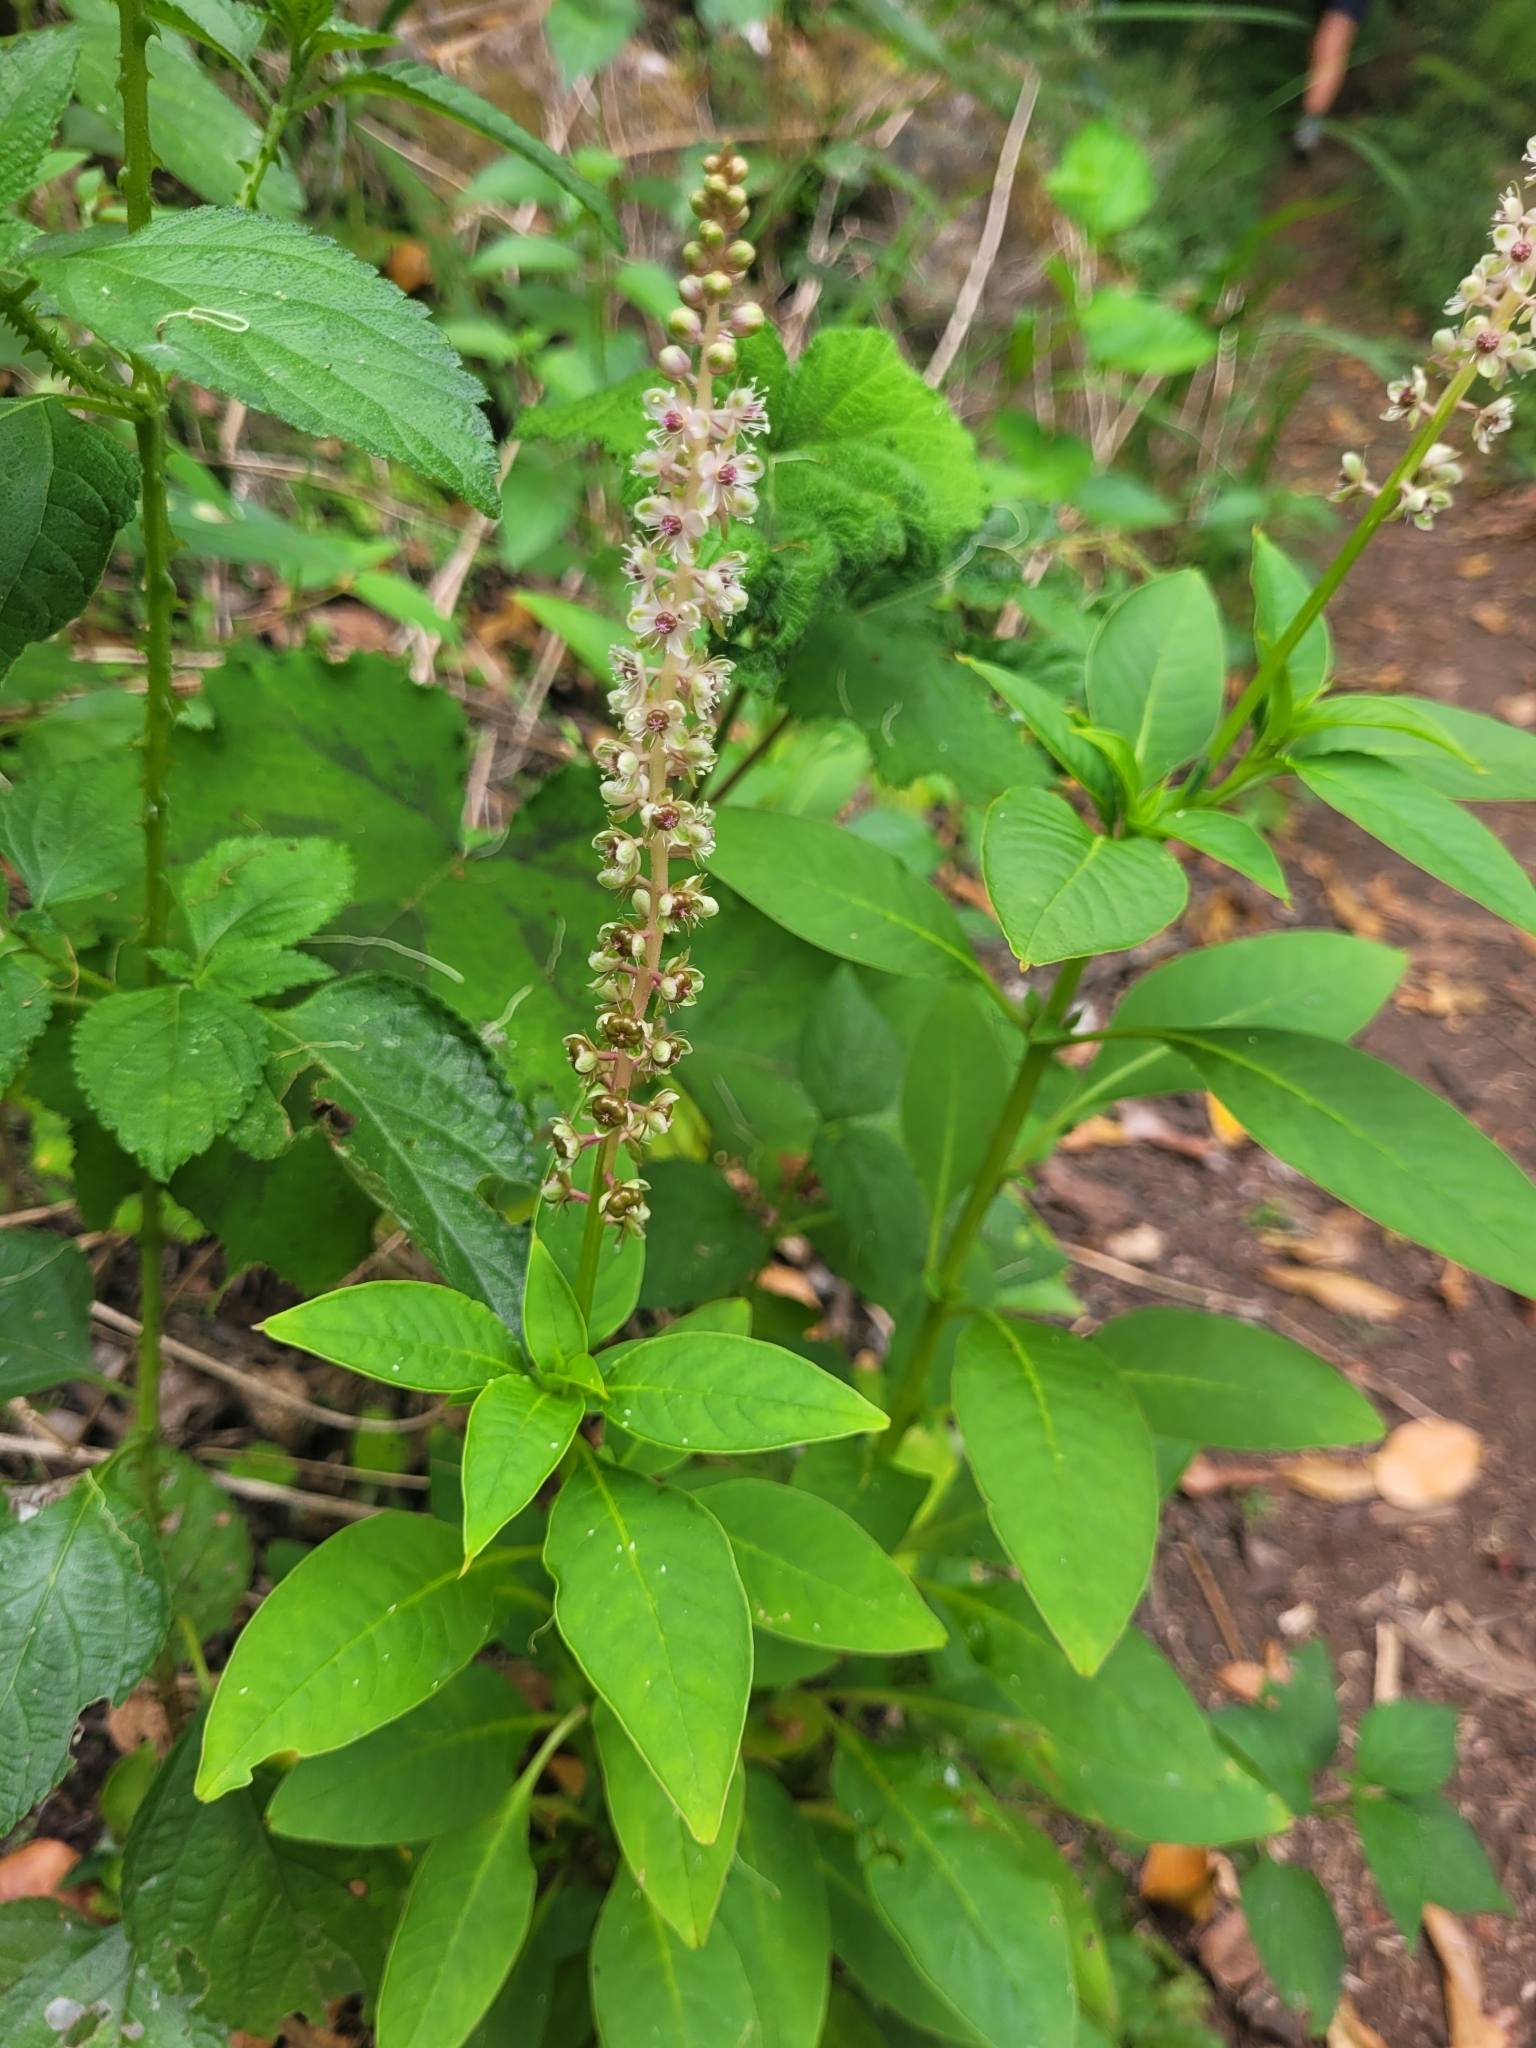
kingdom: Plantae
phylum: Tracheophyta
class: Magnoliopsida
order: Caryophyllales
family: Phytolaccaceae
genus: Phytolacca
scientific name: Phytolacca heterotepala
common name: Mexican pokeweed
